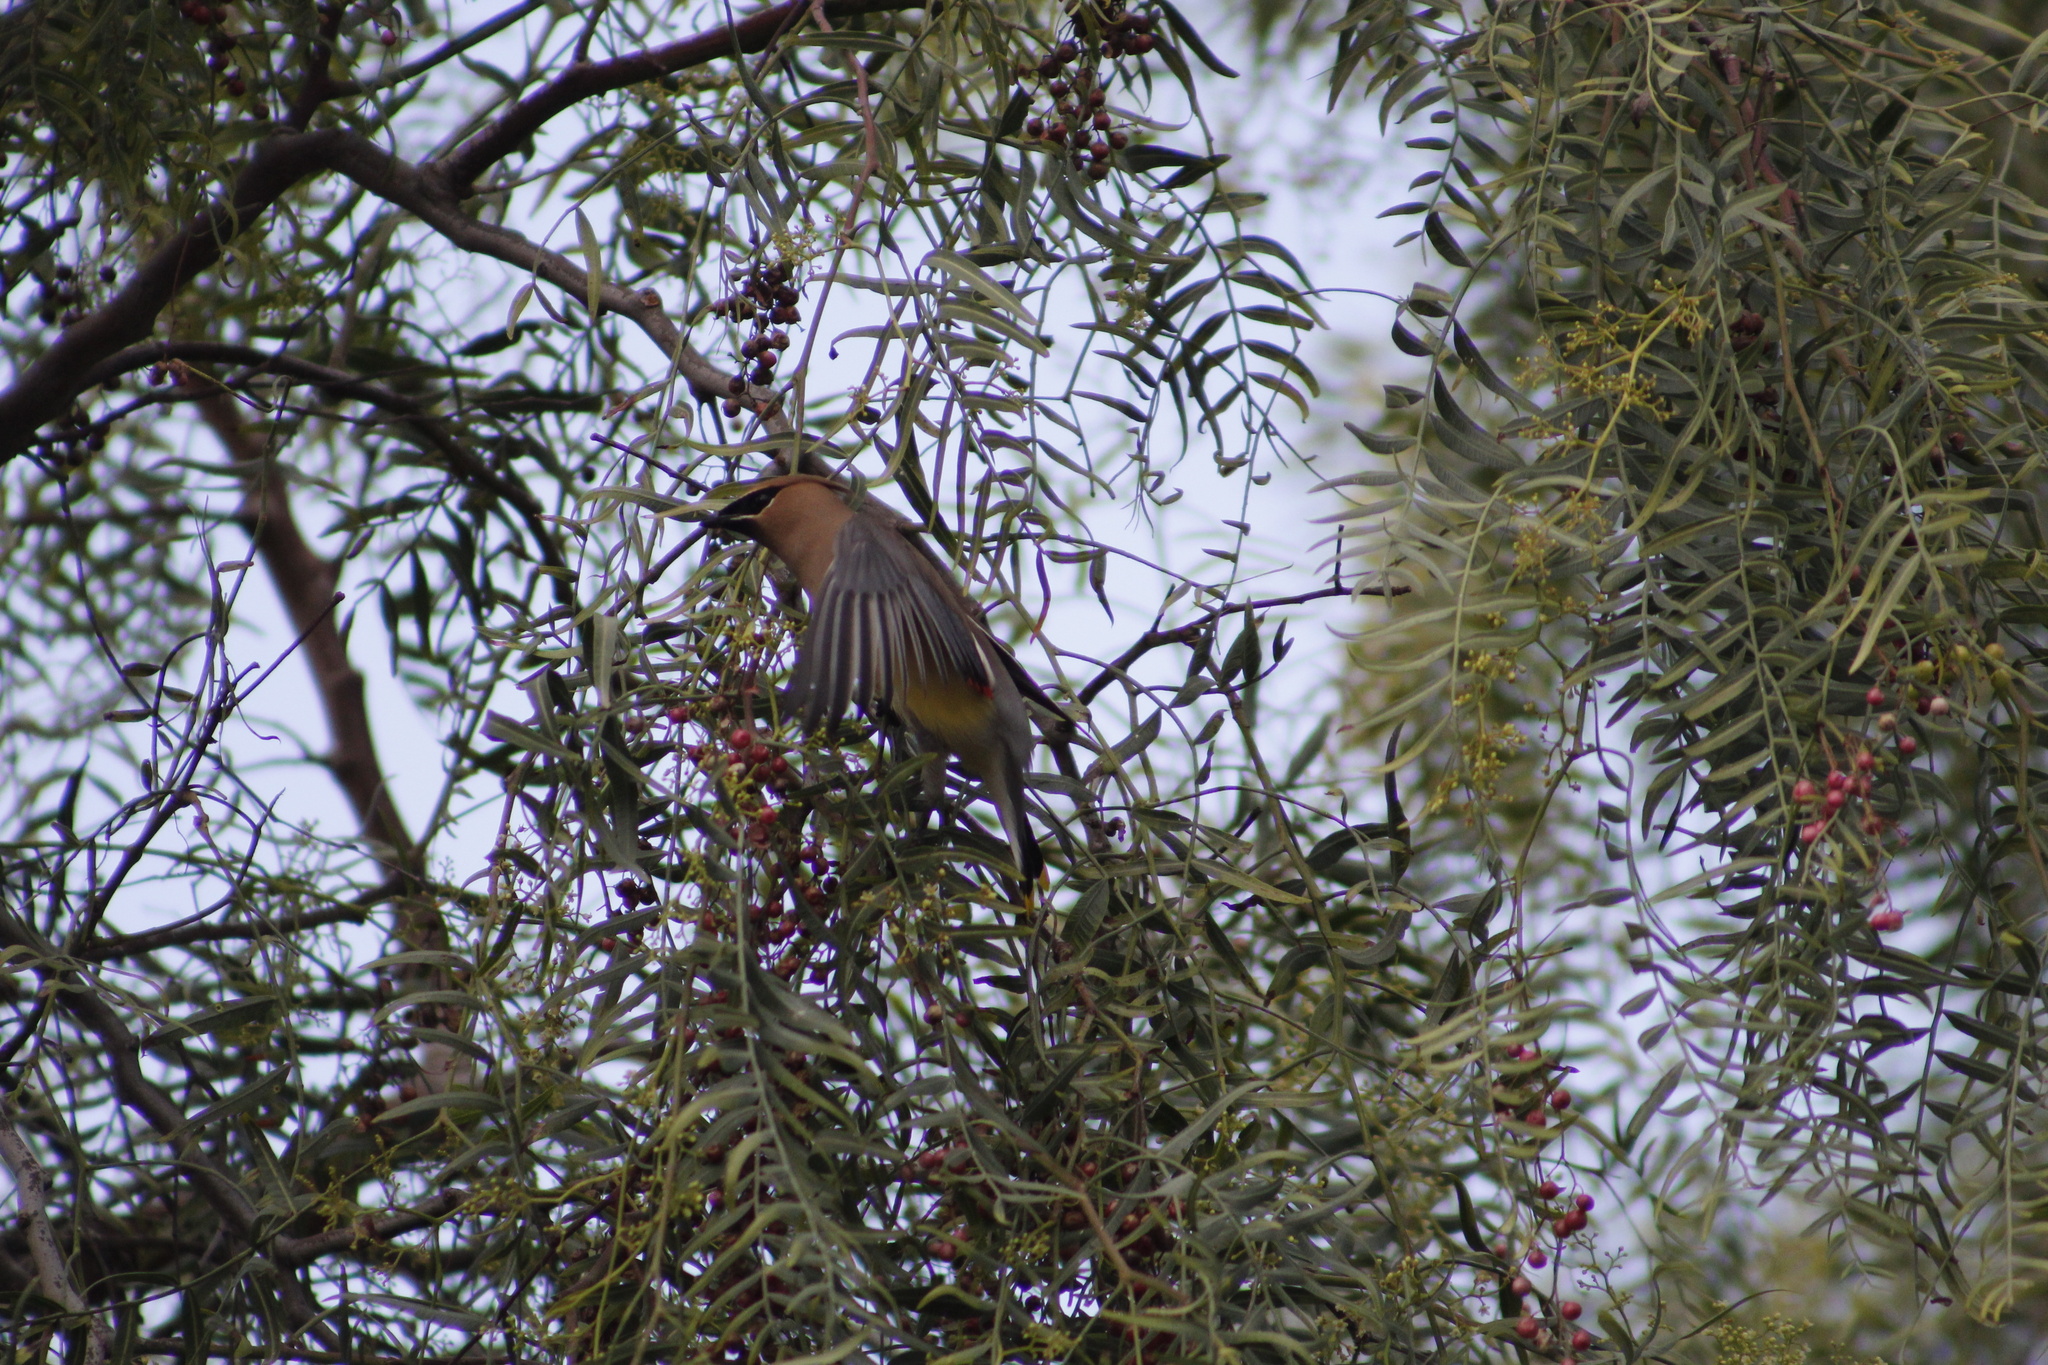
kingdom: Animalia
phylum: Chordata
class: Aves
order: Passeriformes
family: Bombycillidae
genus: Bombycilla
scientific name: Bombycilla cedrorum
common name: Cedar waxwing
